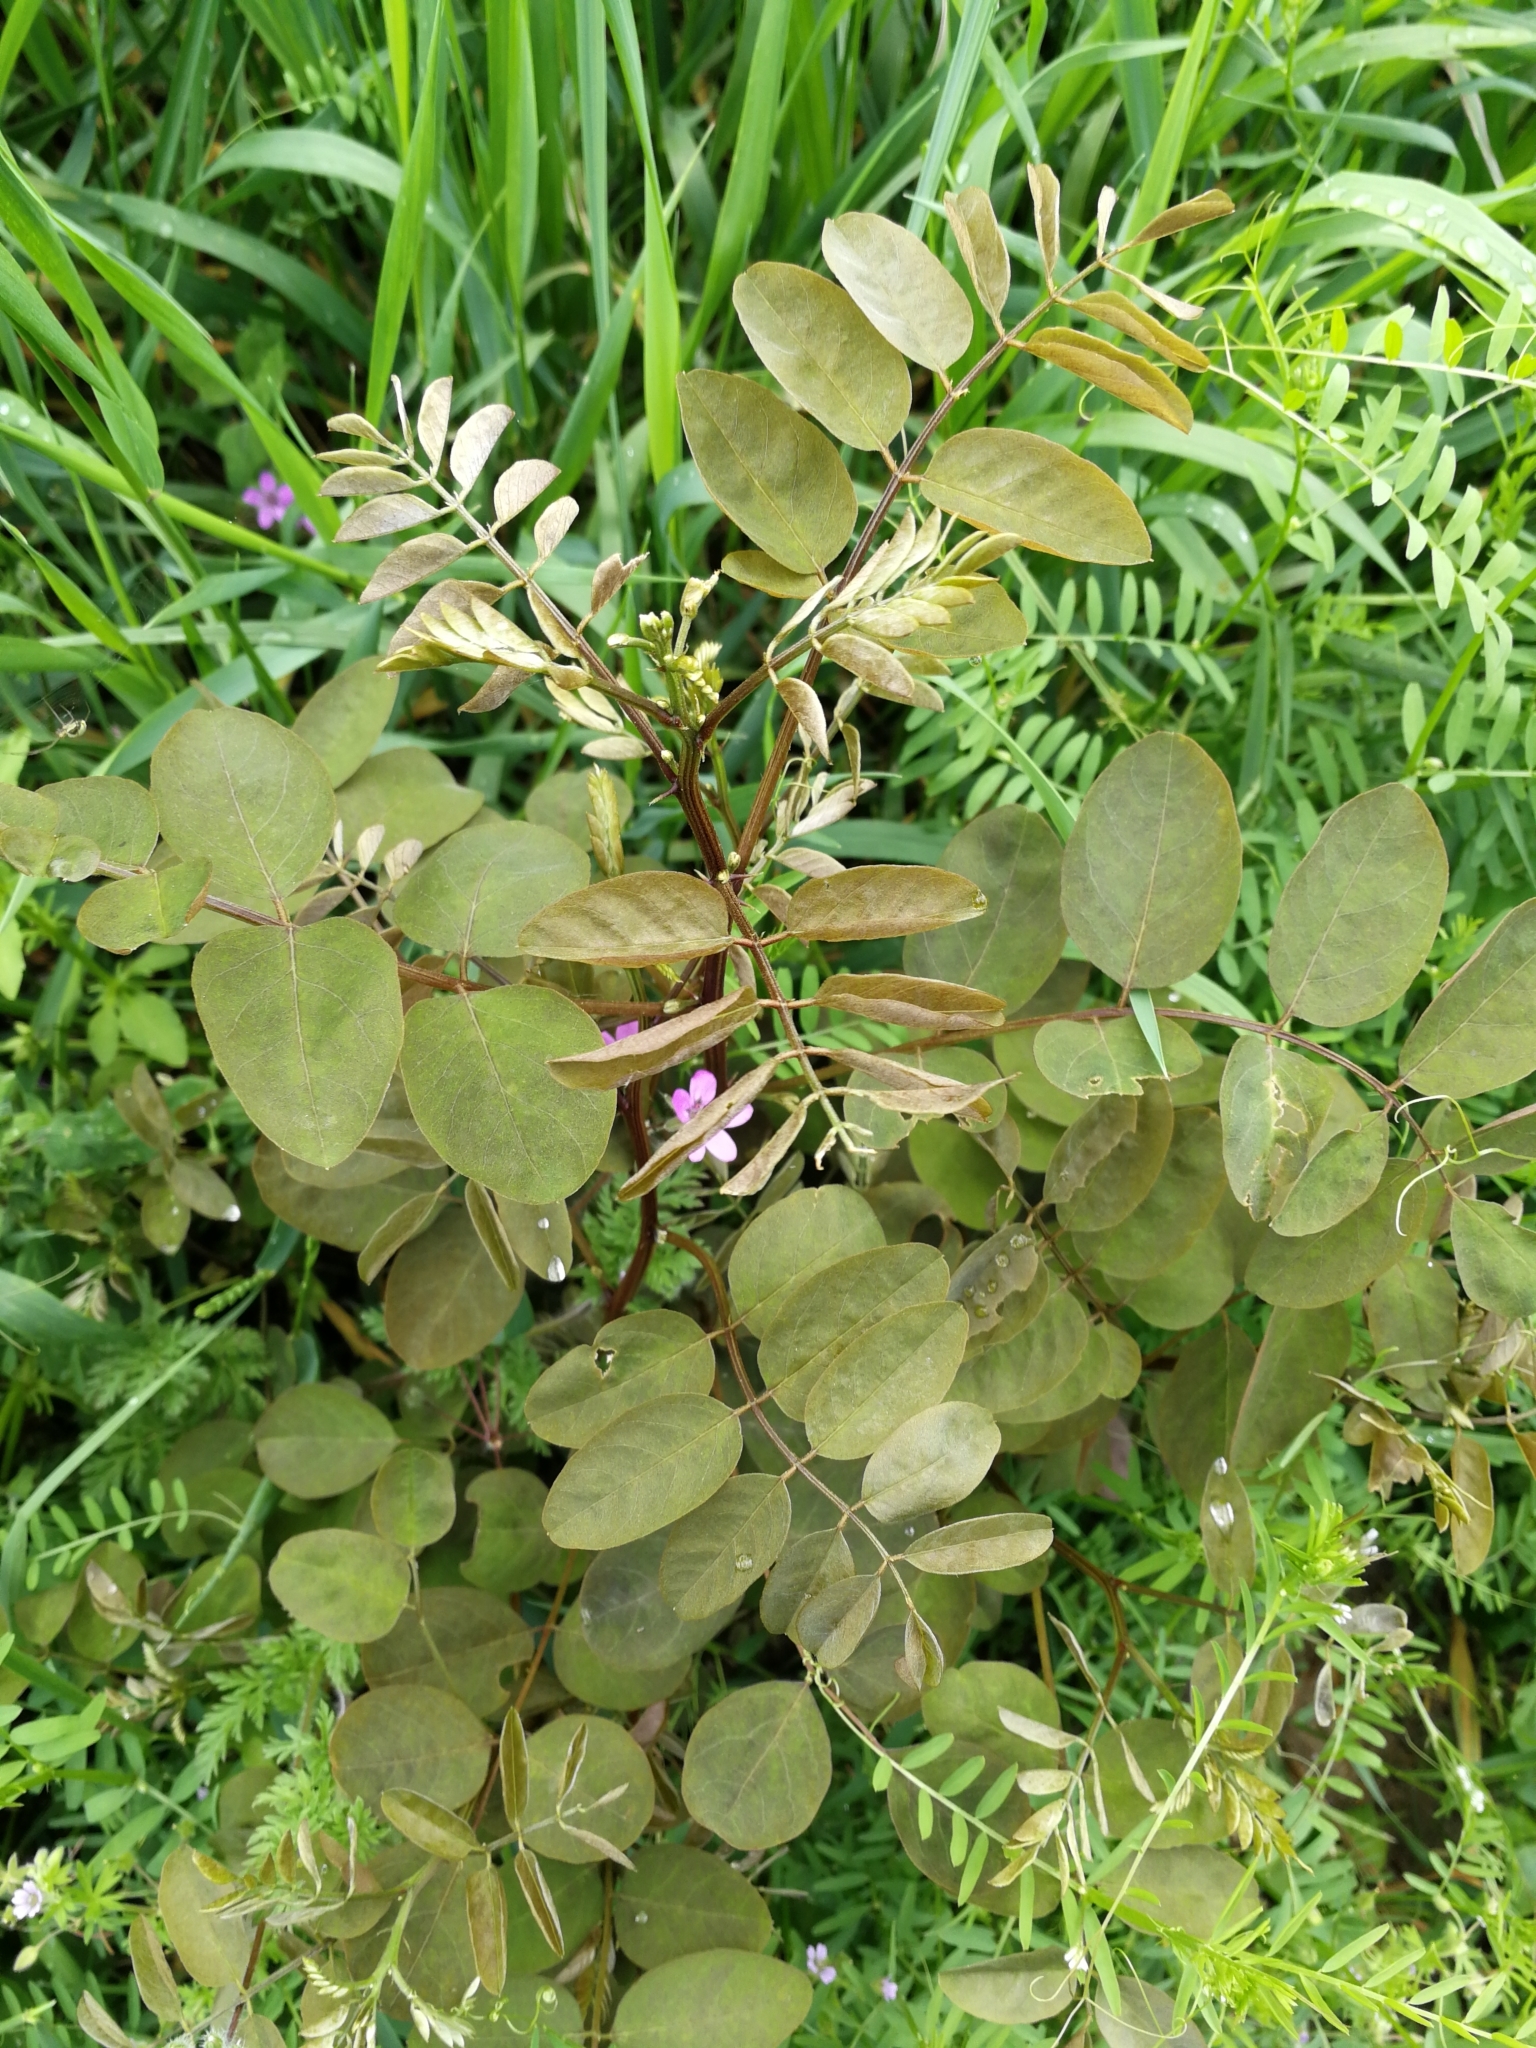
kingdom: Plantae
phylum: Tracheophyta
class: Magnoliopsida
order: Fabales
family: Fabaceae
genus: Robinia
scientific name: Robinia pseudoacacia
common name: Black locust
